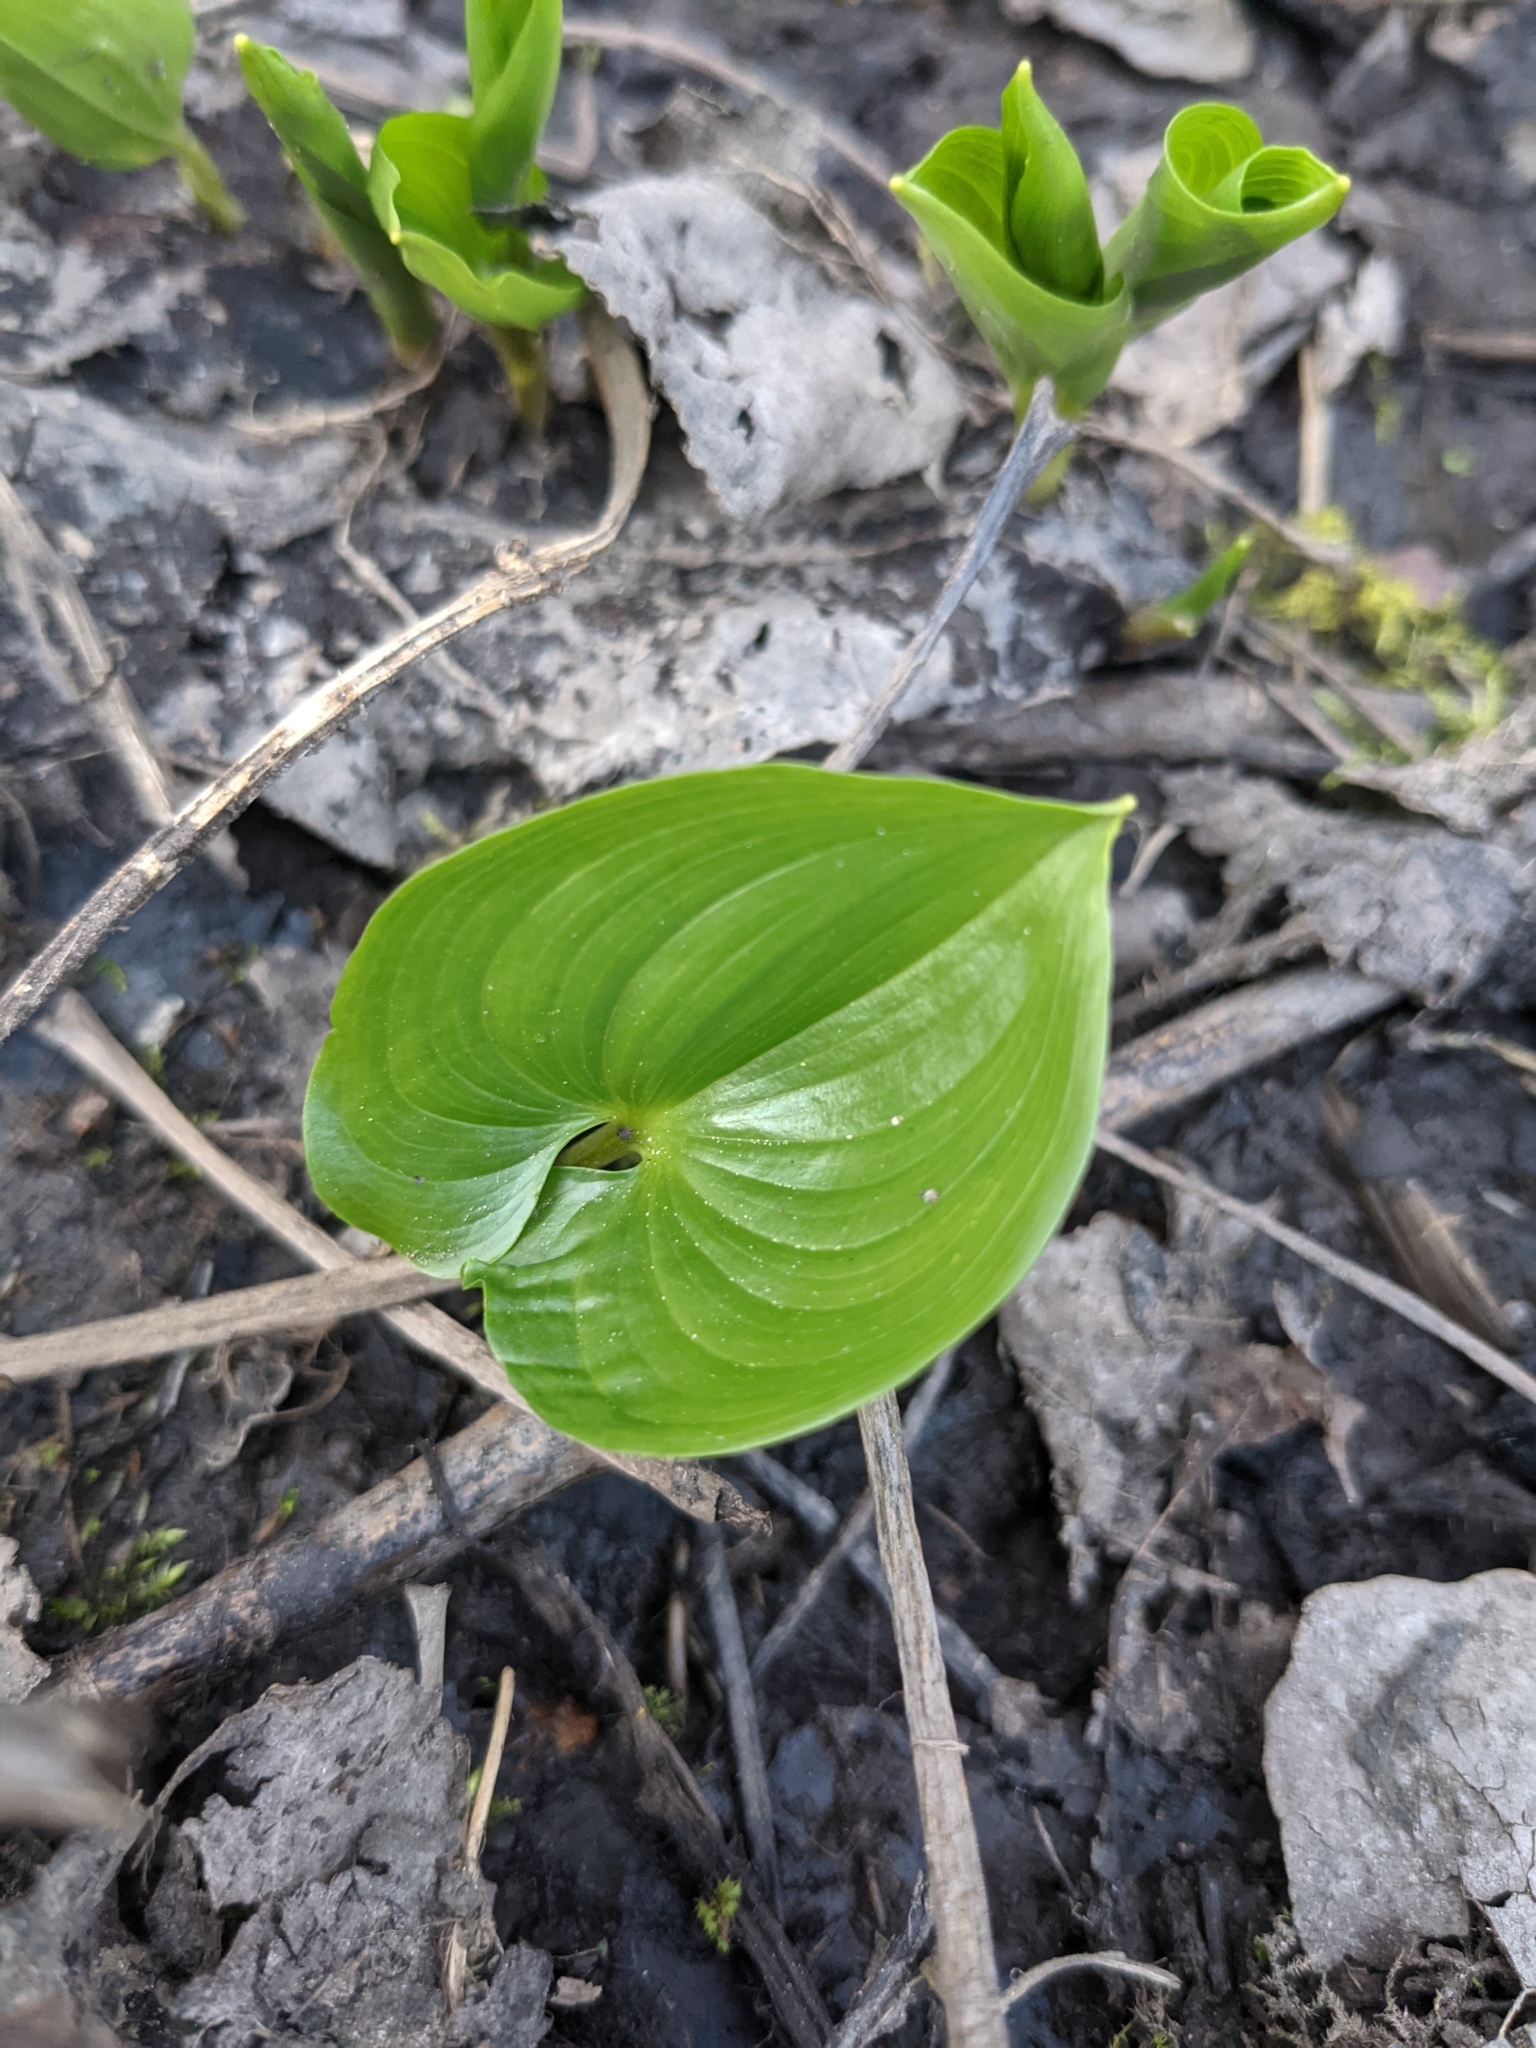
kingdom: Plantae
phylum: Tracheophyta
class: Liliopsida
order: Asparagales
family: Asparagaceae
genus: Maianthemum
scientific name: Maianthemum dilatatum
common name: False lily-of-the-valley
